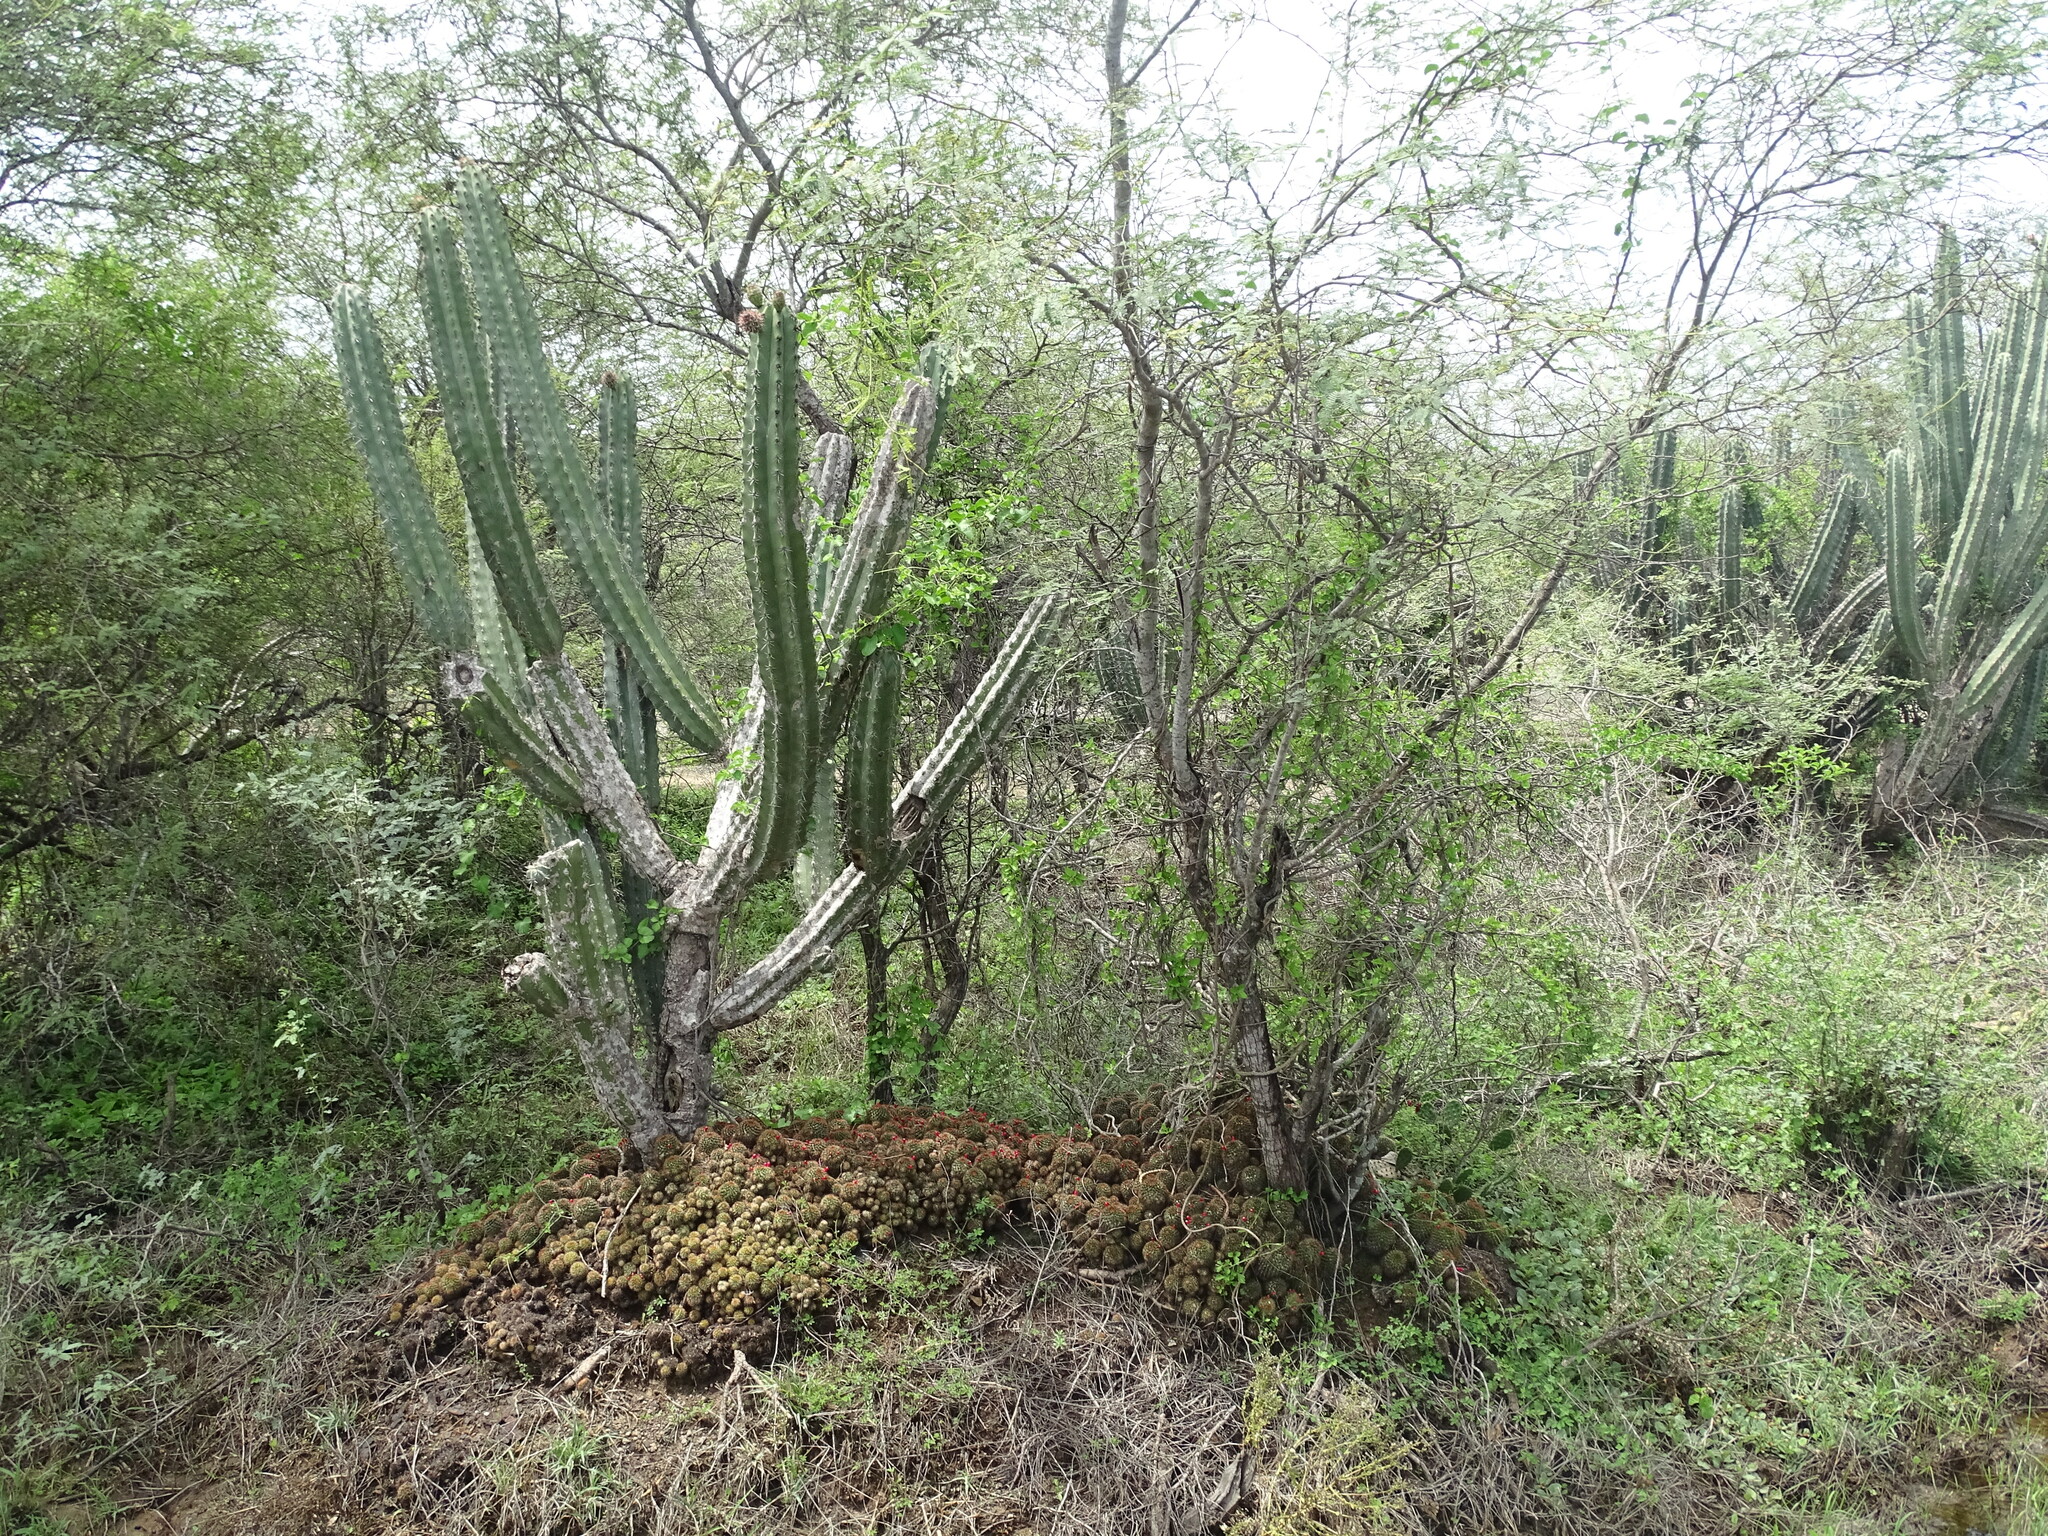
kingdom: Plantae
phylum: Tracheophyta
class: Magnoliopsida
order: Caryophyllales
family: Cactaceae
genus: Mammillaria
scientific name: Mammillaria karwinskiana
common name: Royal cross
